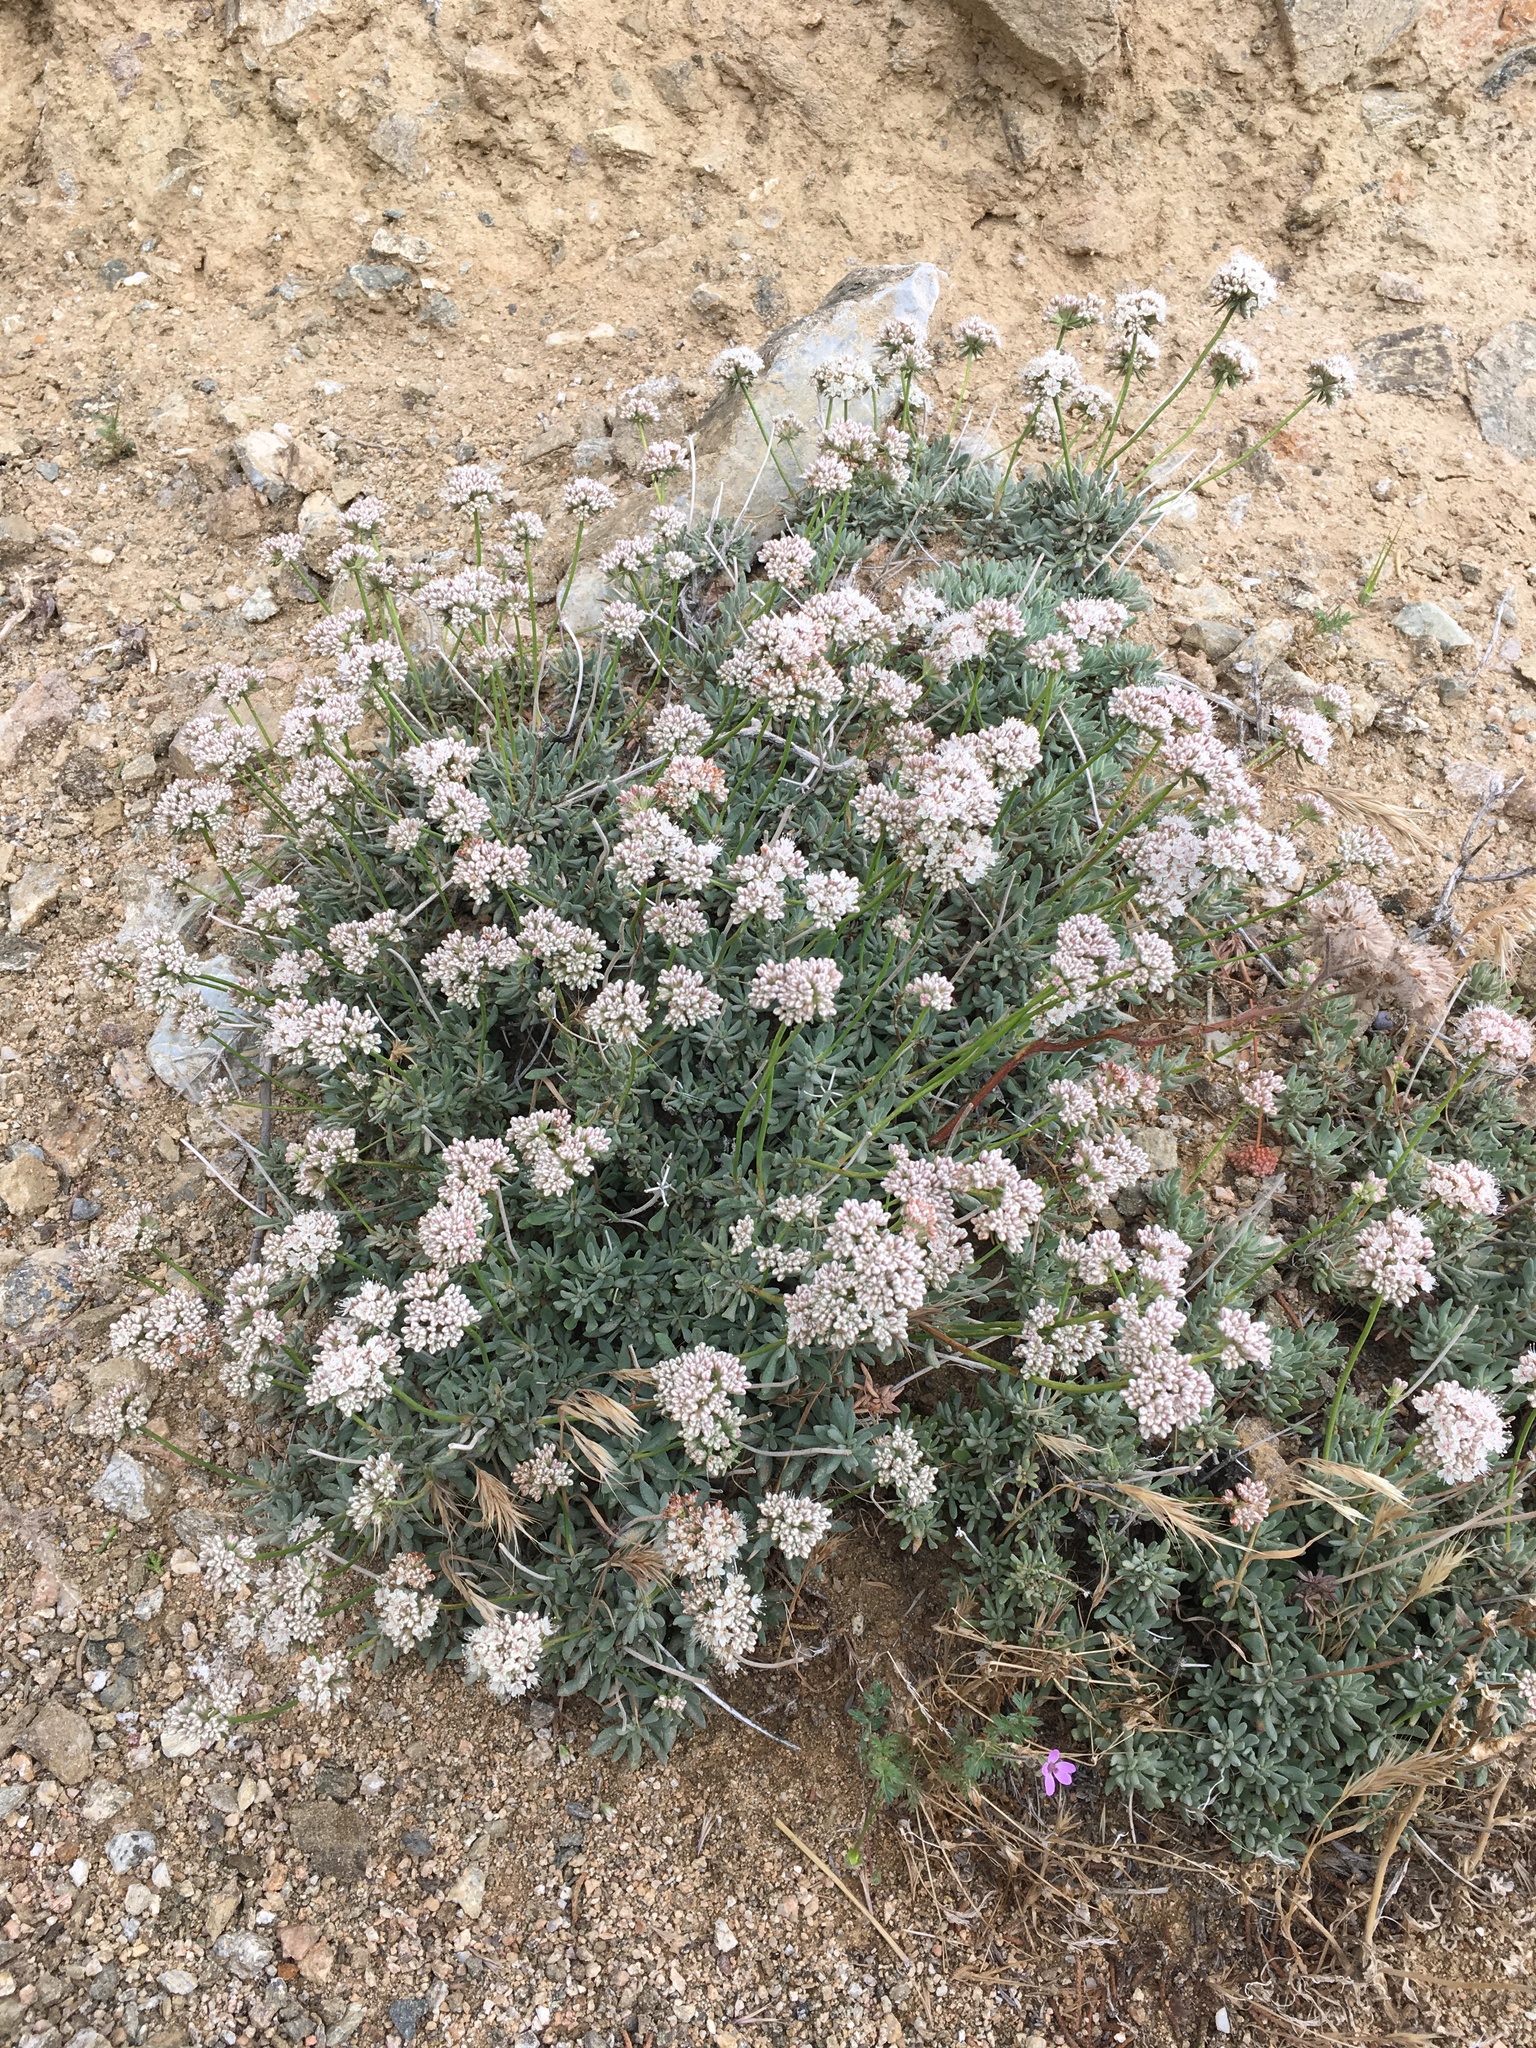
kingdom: Plantae
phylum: Tracheophyta
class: Magnoliopsida
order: Caryophyllales
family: Polygonaceae
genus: Eriogonum
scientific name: Eriogonum fasciculatum
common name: California wild buckwheat
